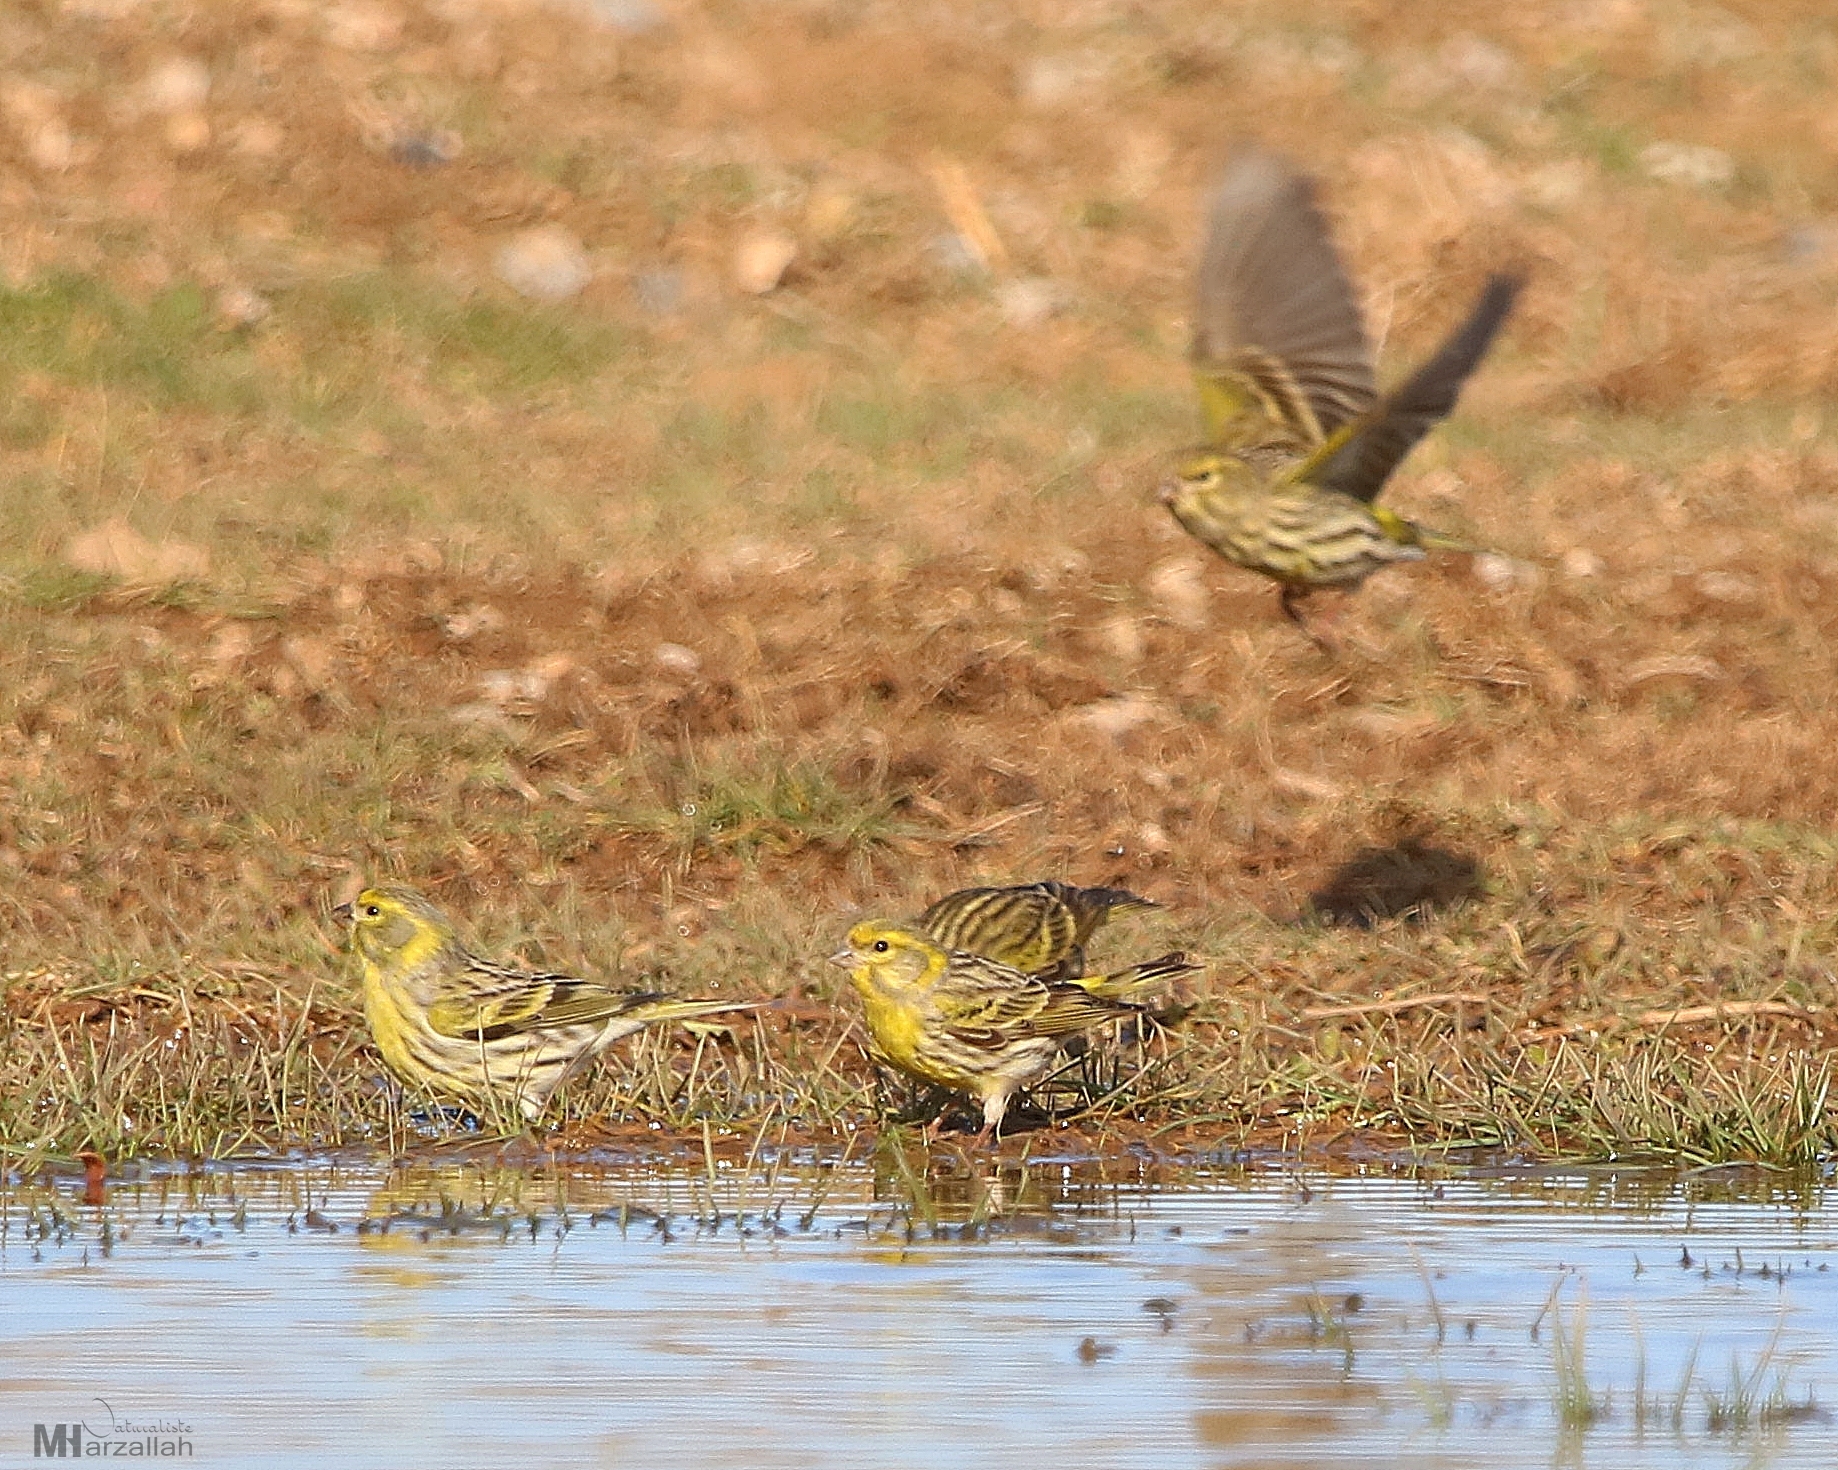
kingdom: Animalia
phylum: Chordata
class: Aves
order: Passeriformes
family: Fringillidae
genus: Serinus
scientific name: Serinus serinus
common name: European serin
